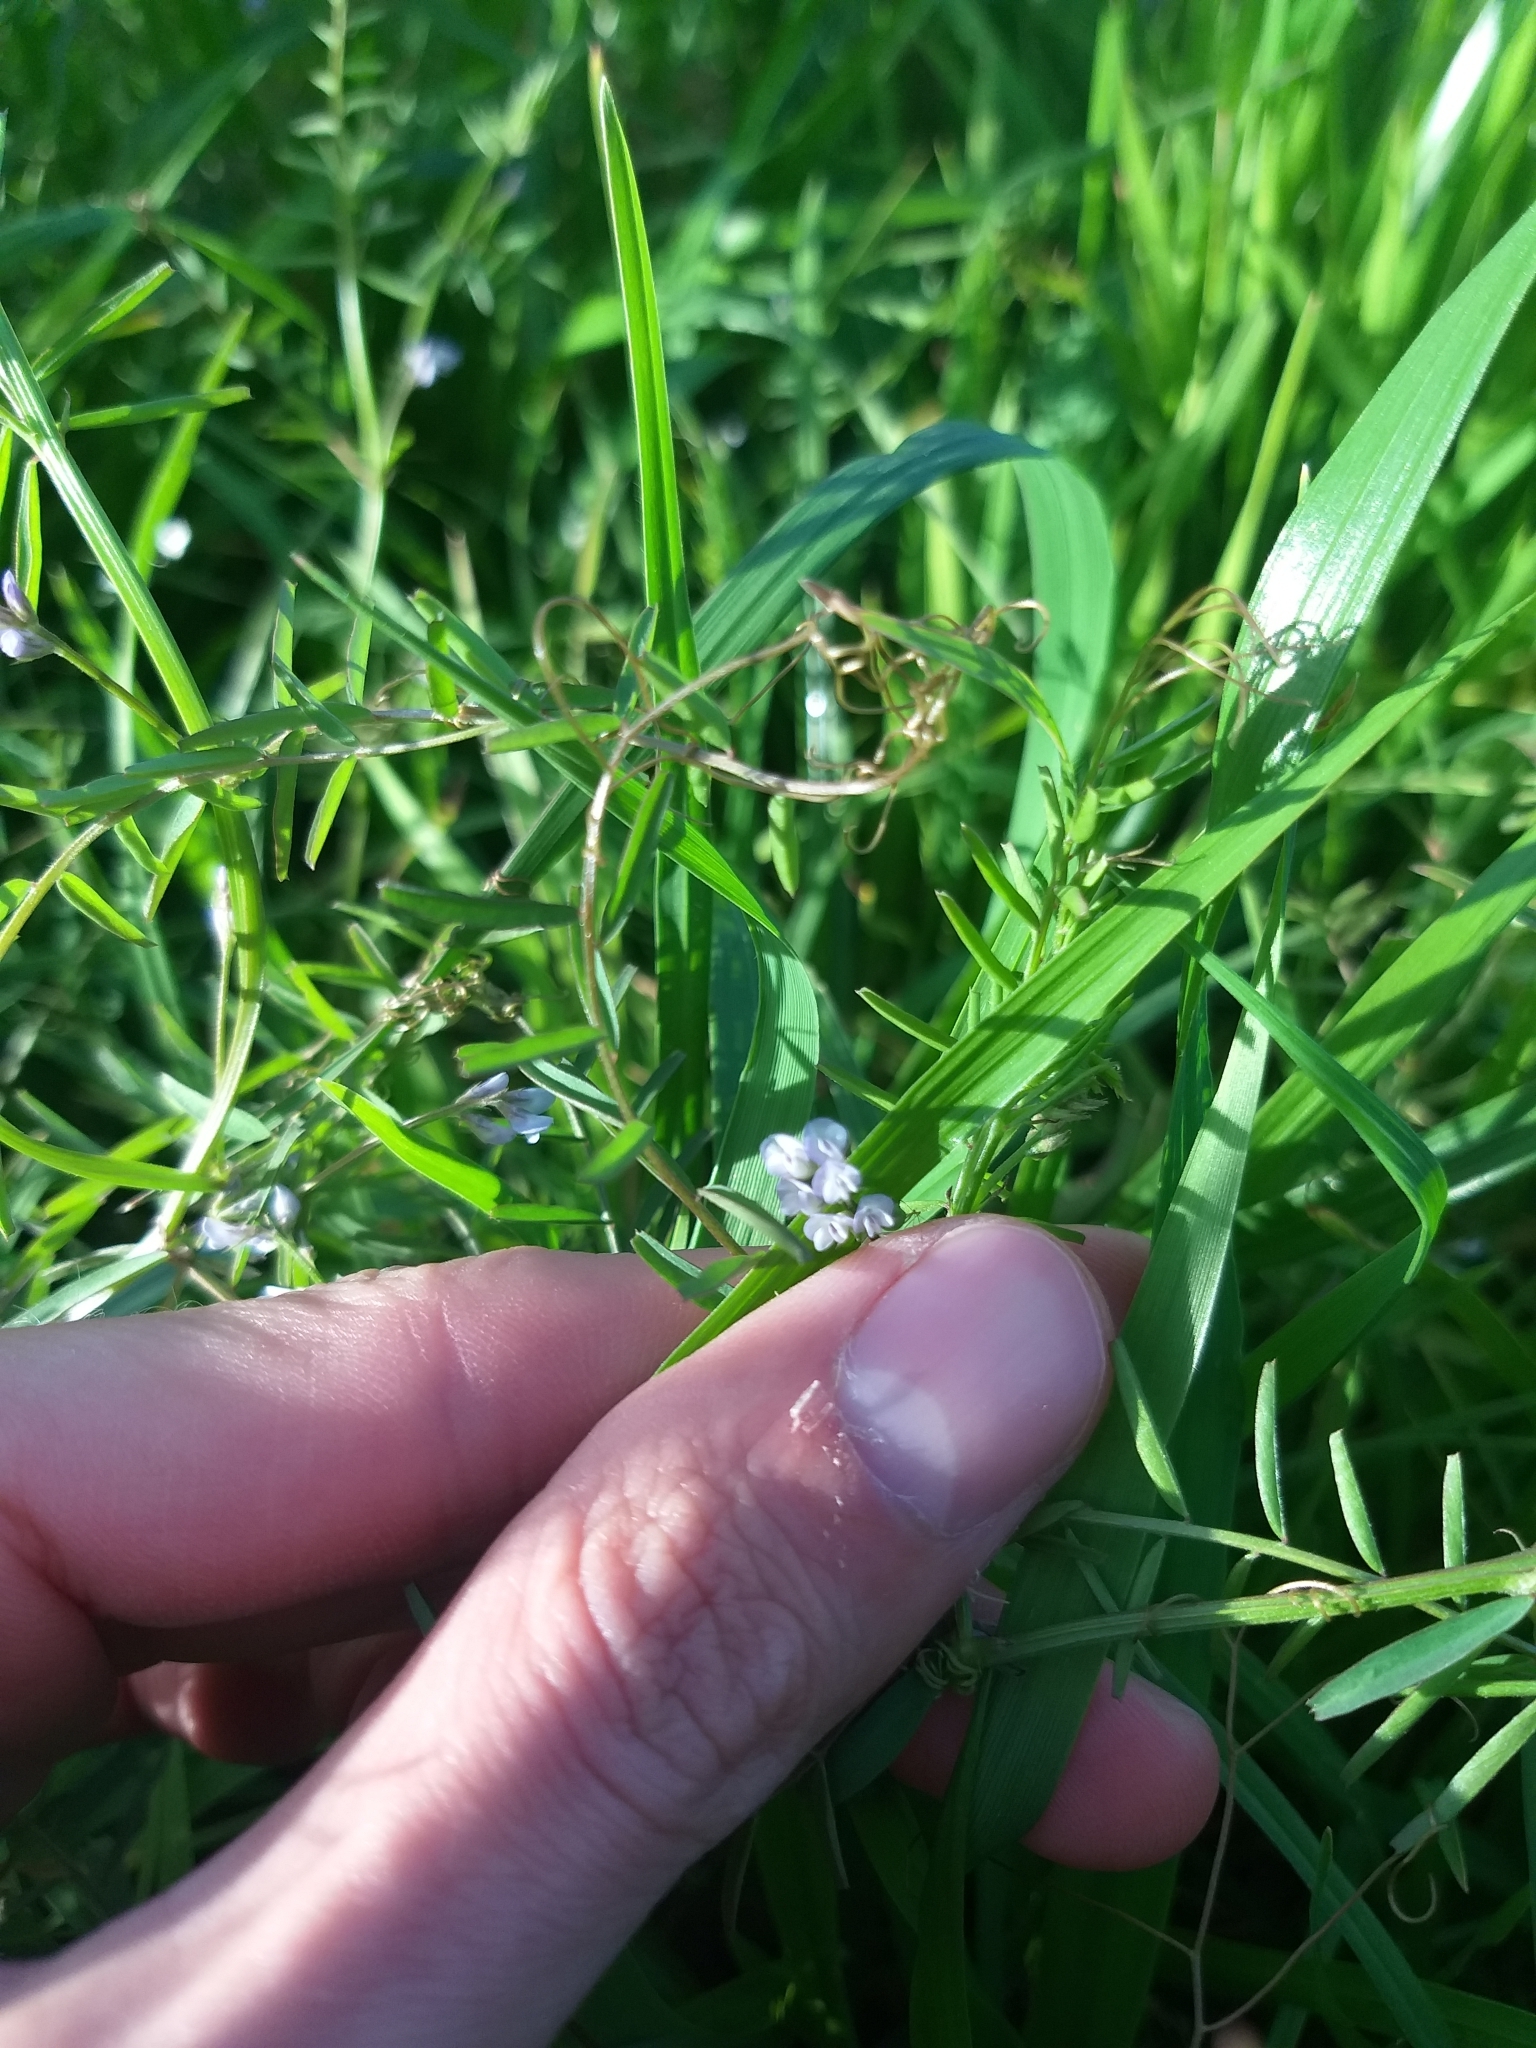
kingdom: Plantae
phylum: Tracheophyta
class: Magnoliopsida
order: Fabales
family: Fabaceae
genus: Vicia
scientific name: Vicia hirsuta
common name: Tiny vetch
